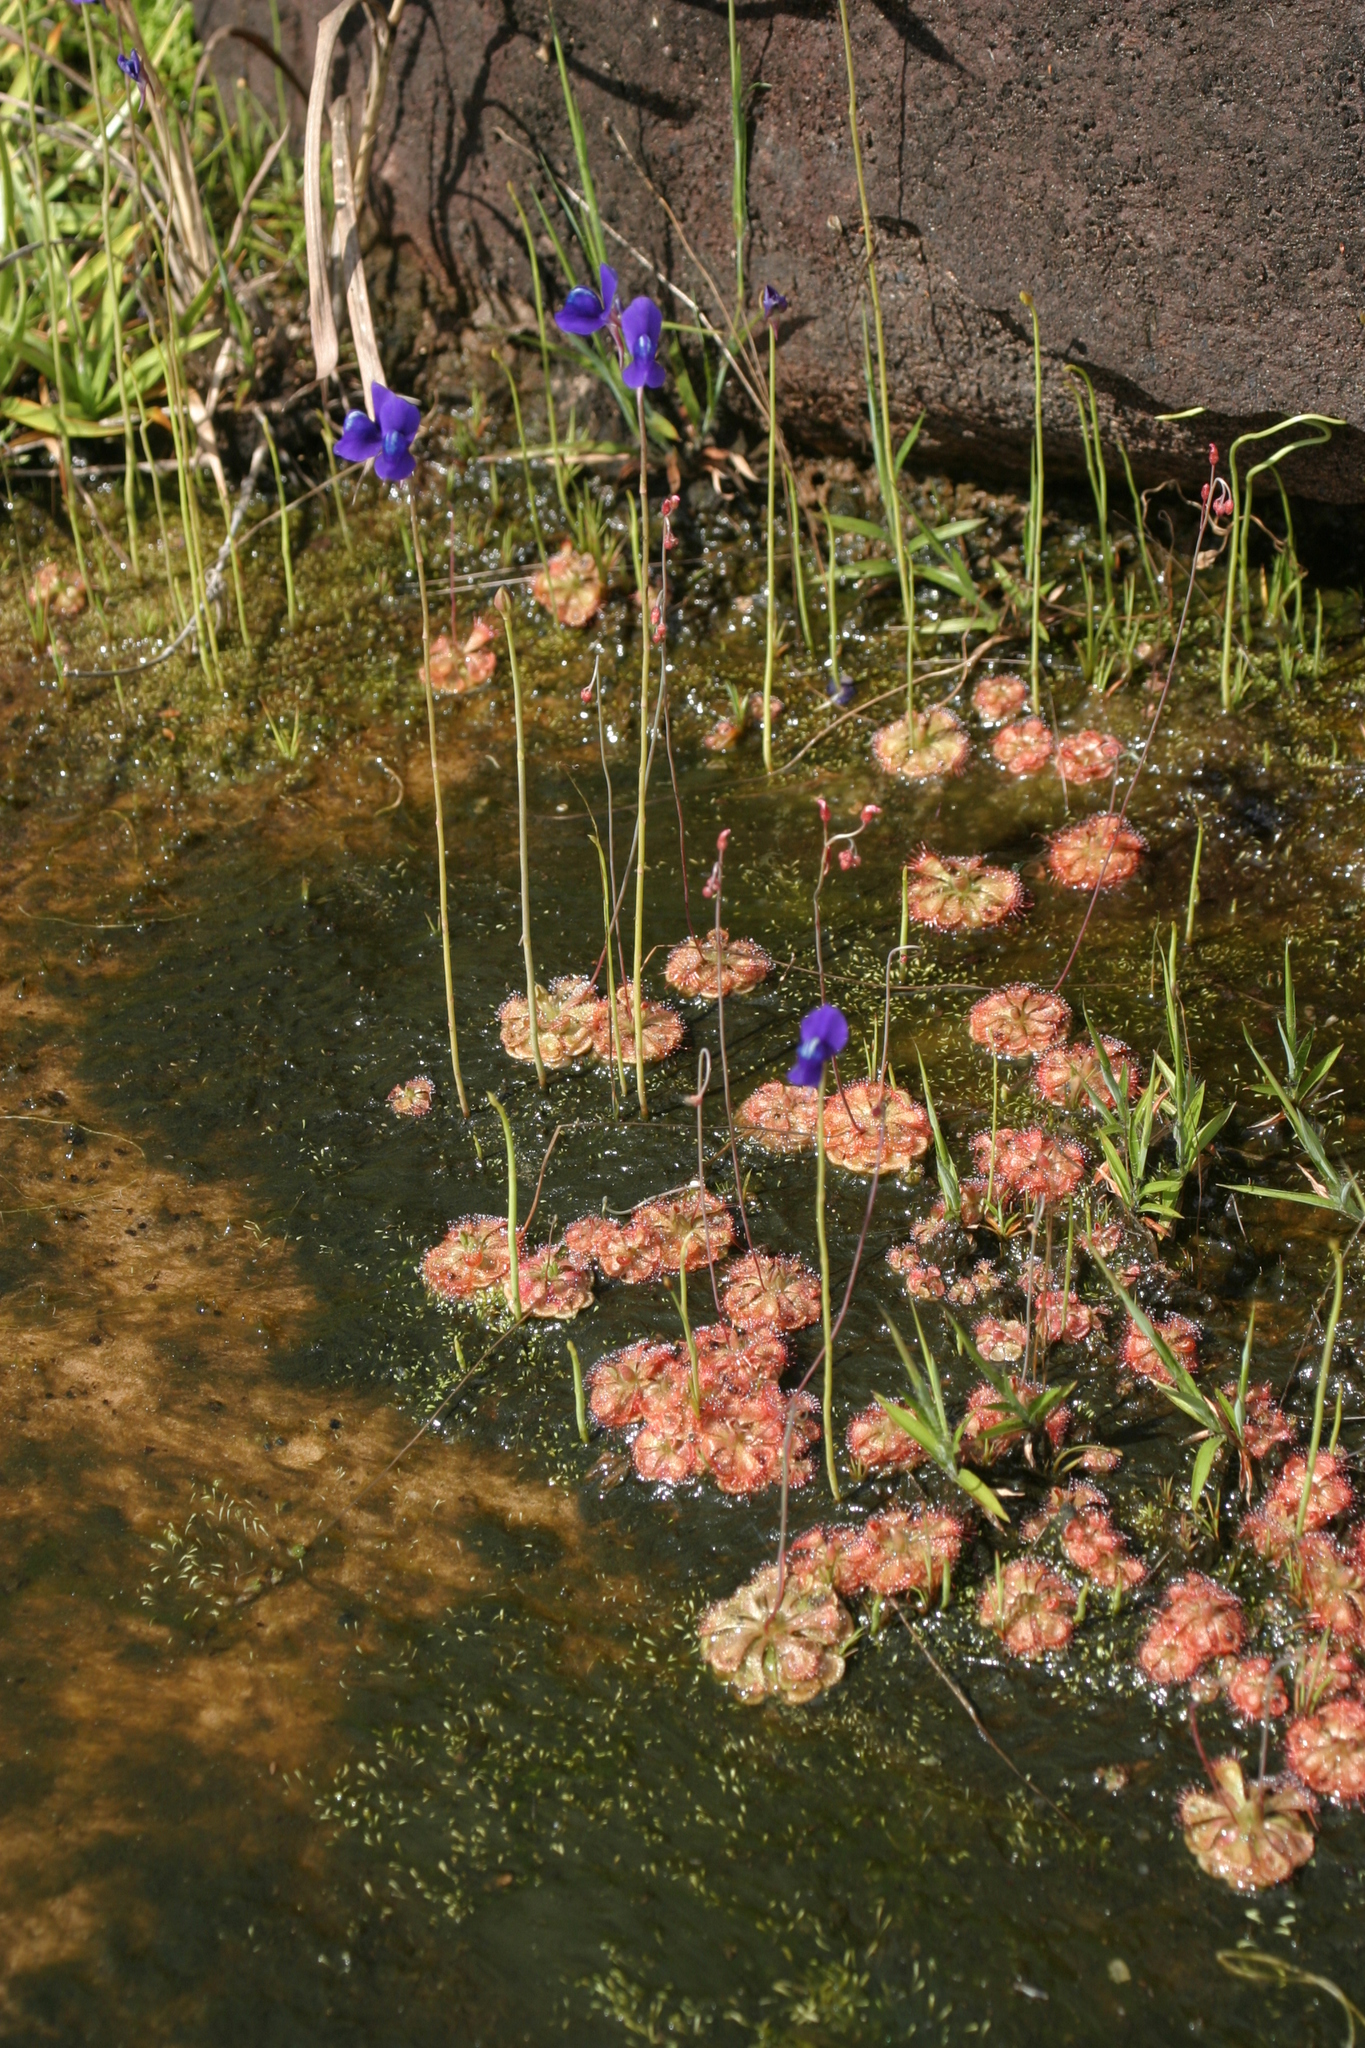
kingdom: Plantae
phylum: Tracheophyta
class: Magnoliopsida
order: Lamiales
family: Lentibulariaceae
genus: Utricularia
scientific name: Utricularia delphinioides
